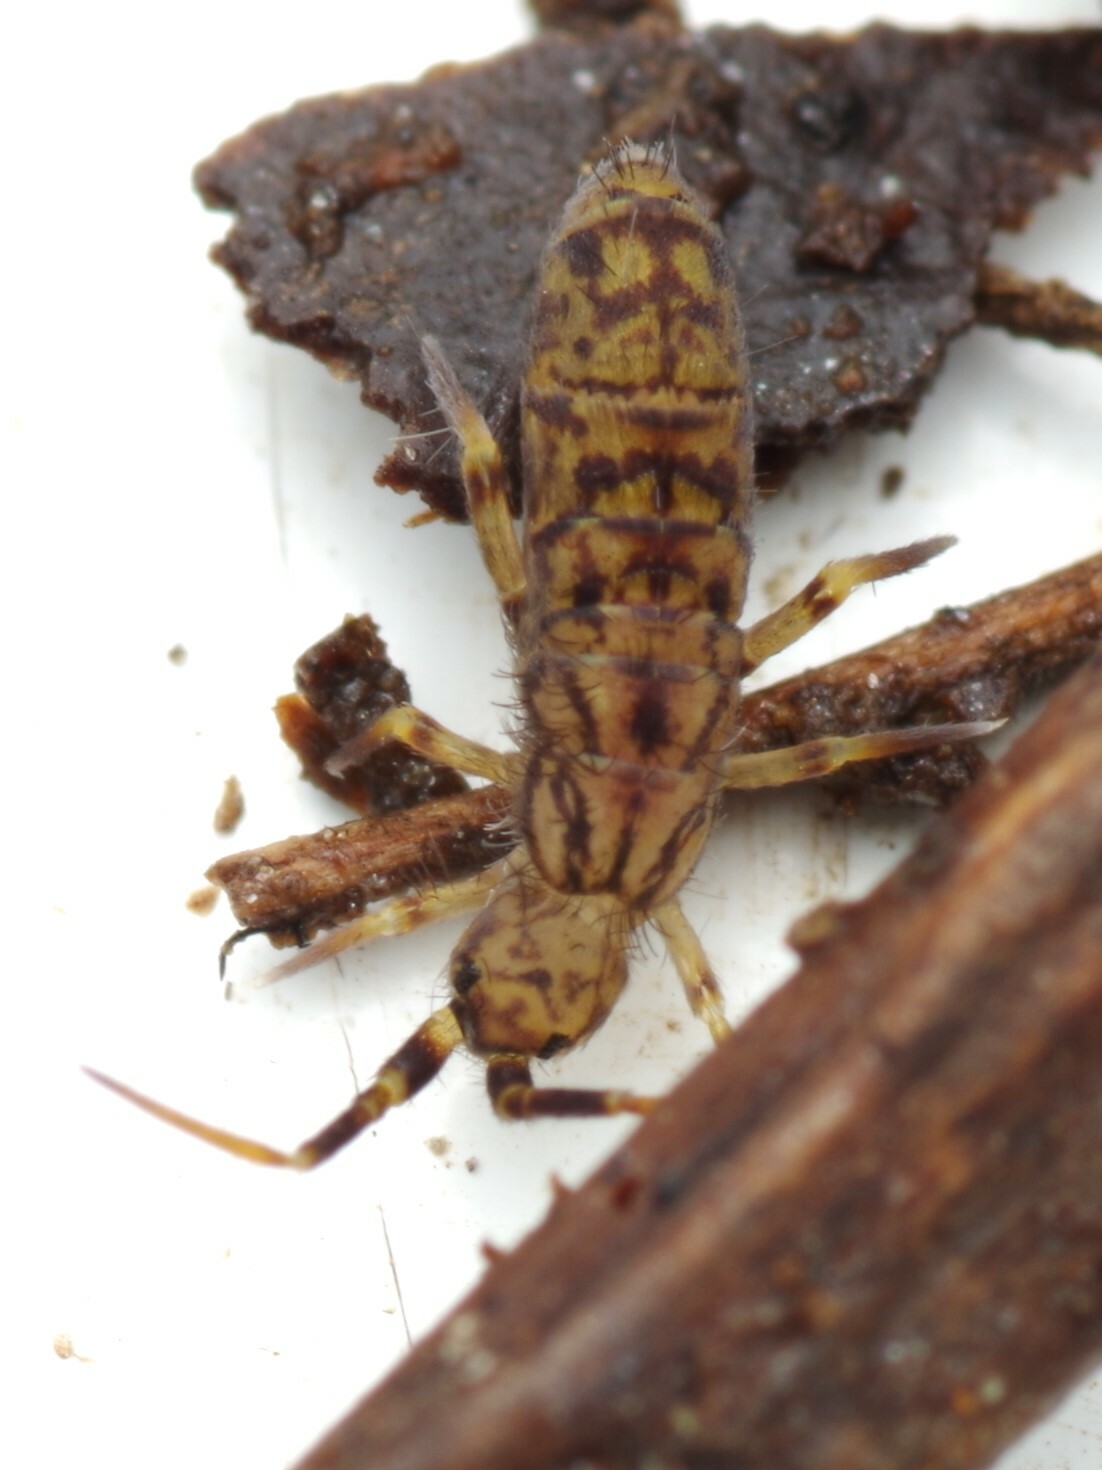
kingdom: Animalia
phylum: Arthropoda
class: Collembola
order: Entomobryomorpha
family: Orchesellidae
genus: Orchesella
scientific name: Orchesella villosa
